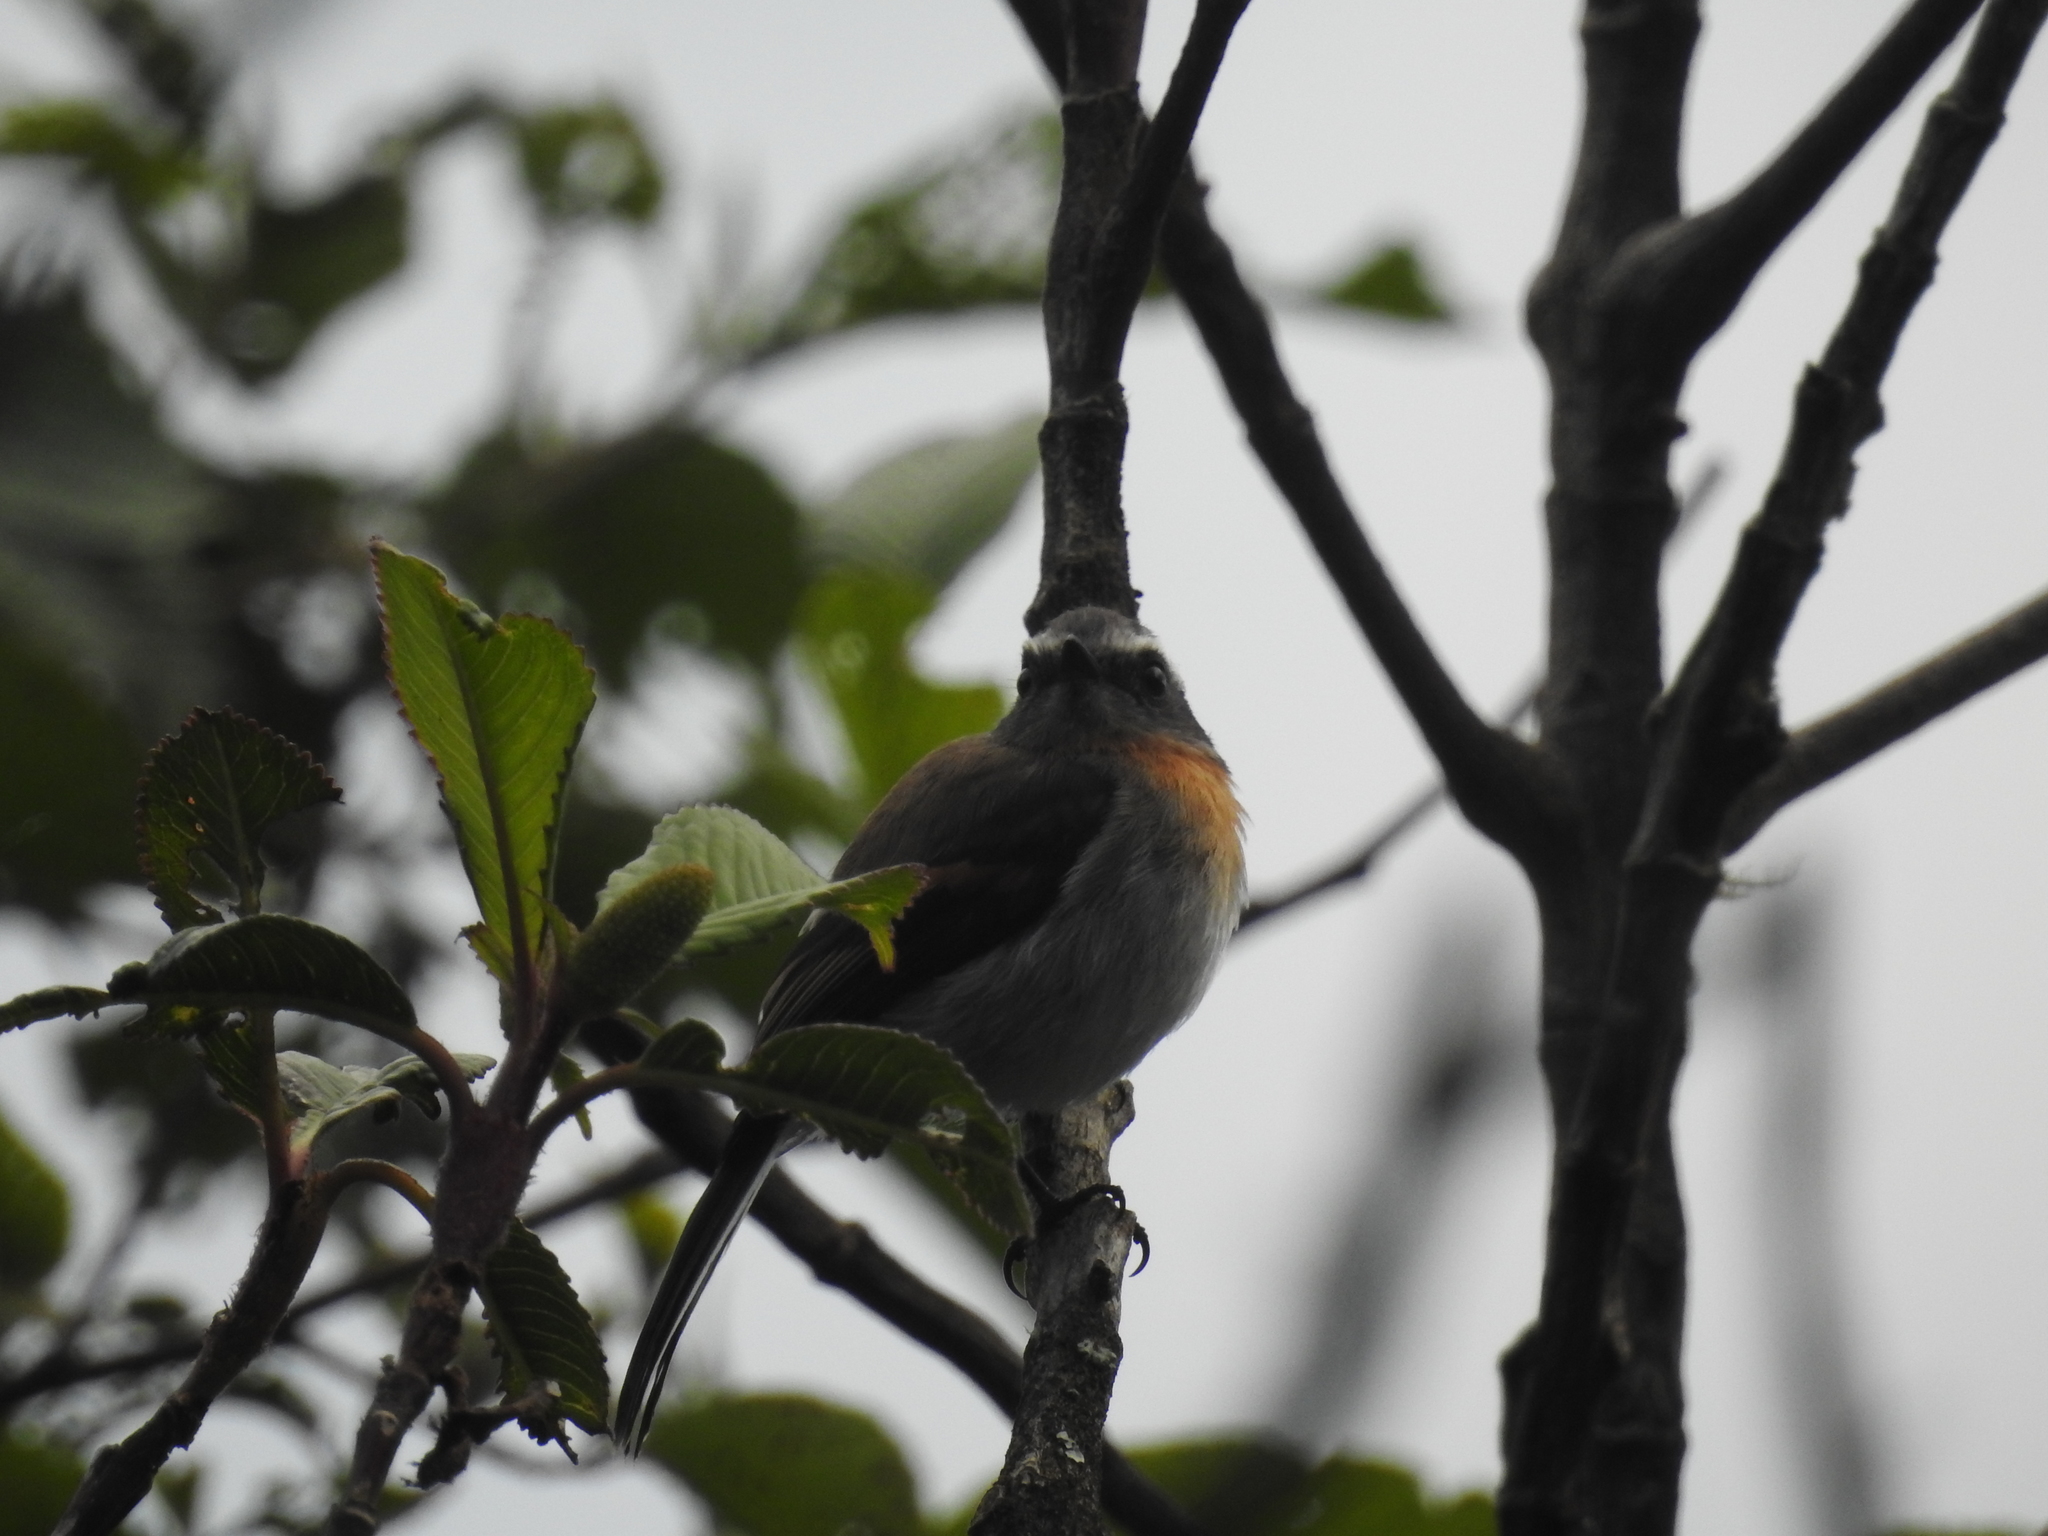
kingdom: Animalia
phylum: Chordata
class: Aves
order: Passeriformes
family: Tyrannidae
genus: Ochthoeca
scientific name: Ochthoeca rufipectoralis
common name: Rufous-breasted chat-tyrant
